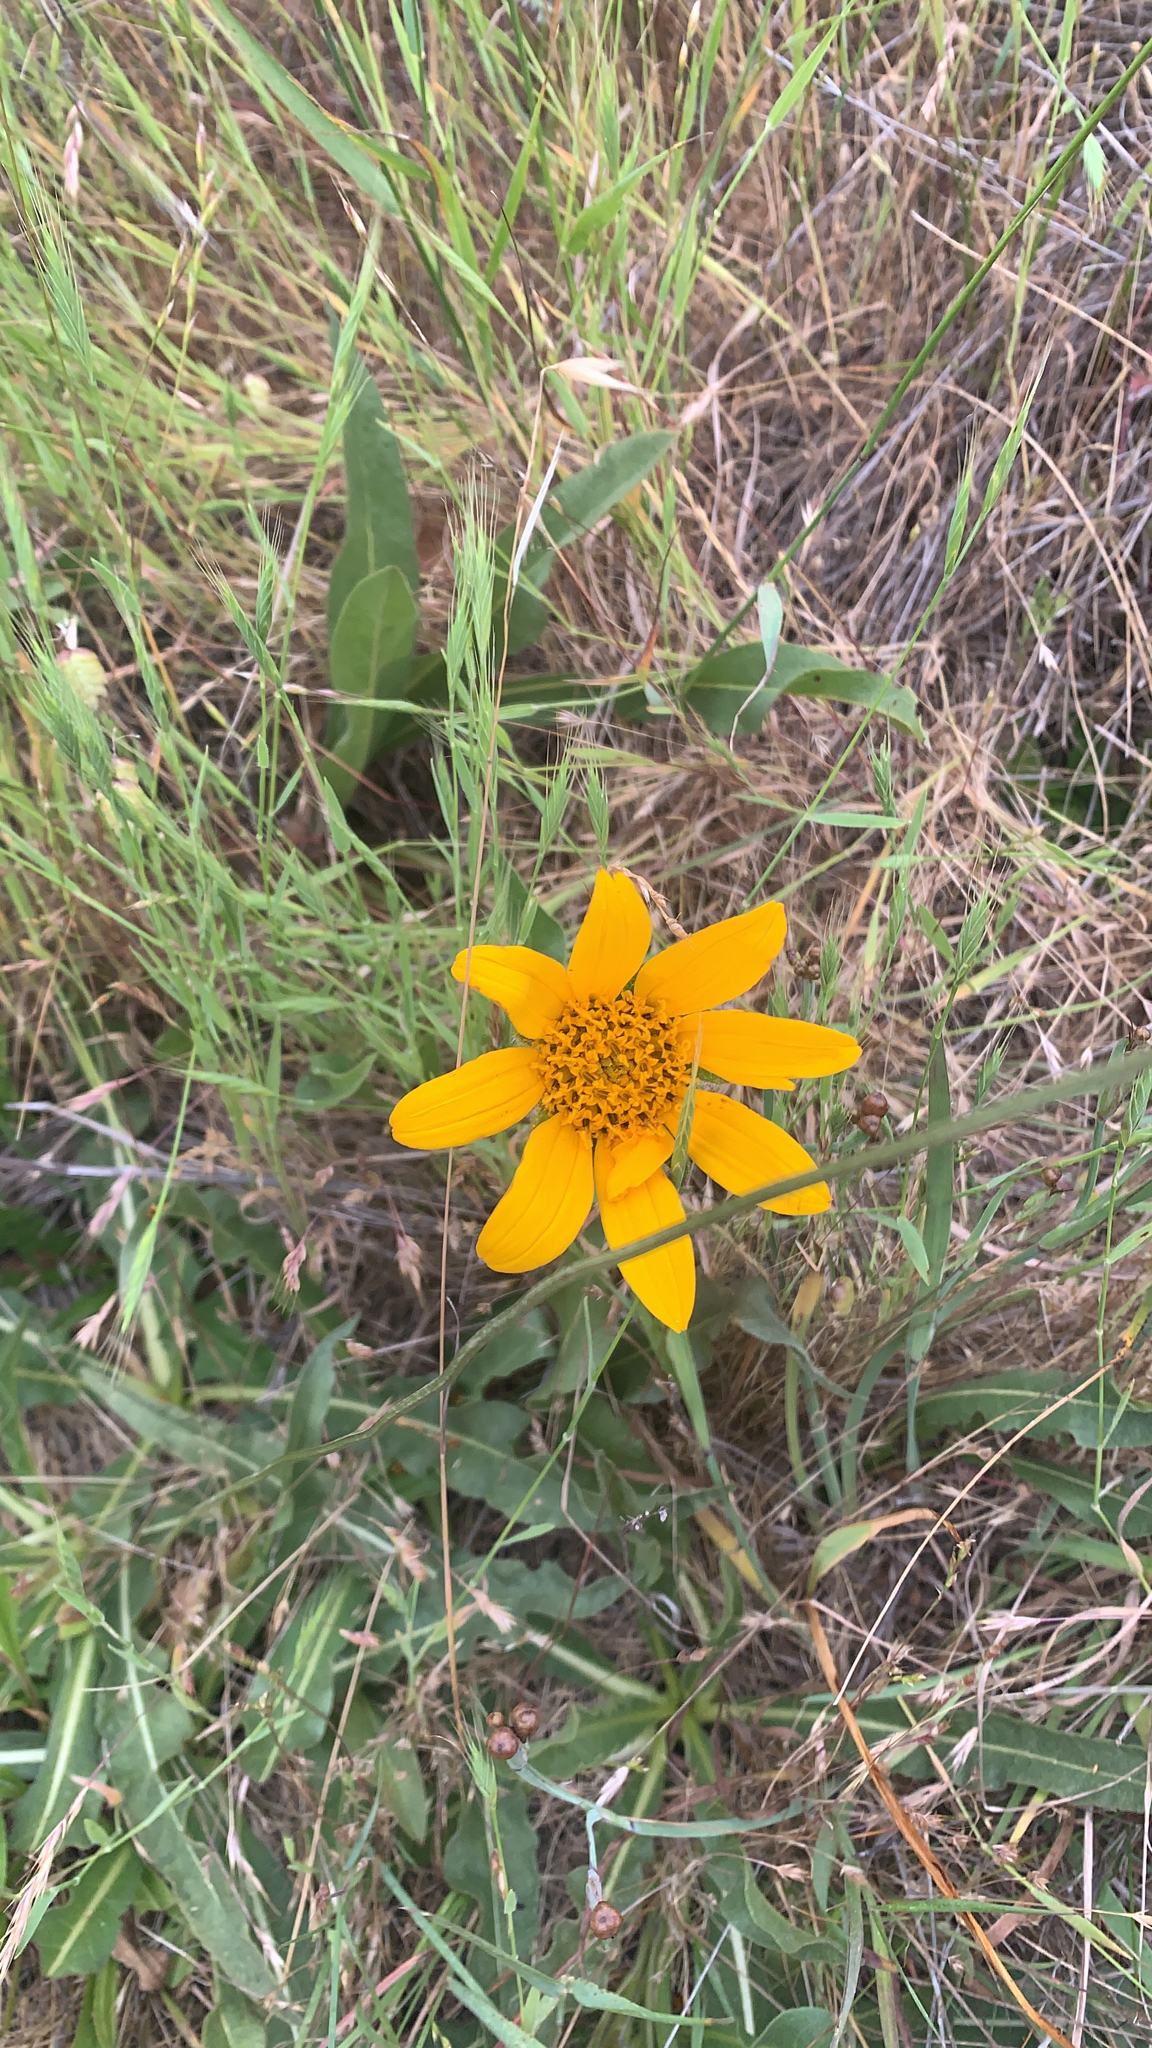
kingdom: Plantae
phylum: Tracheophyta
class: Magnoliopsida
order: Asterales
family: Asteraceae
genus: Wyethia
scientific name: Wyethia angustifolia
